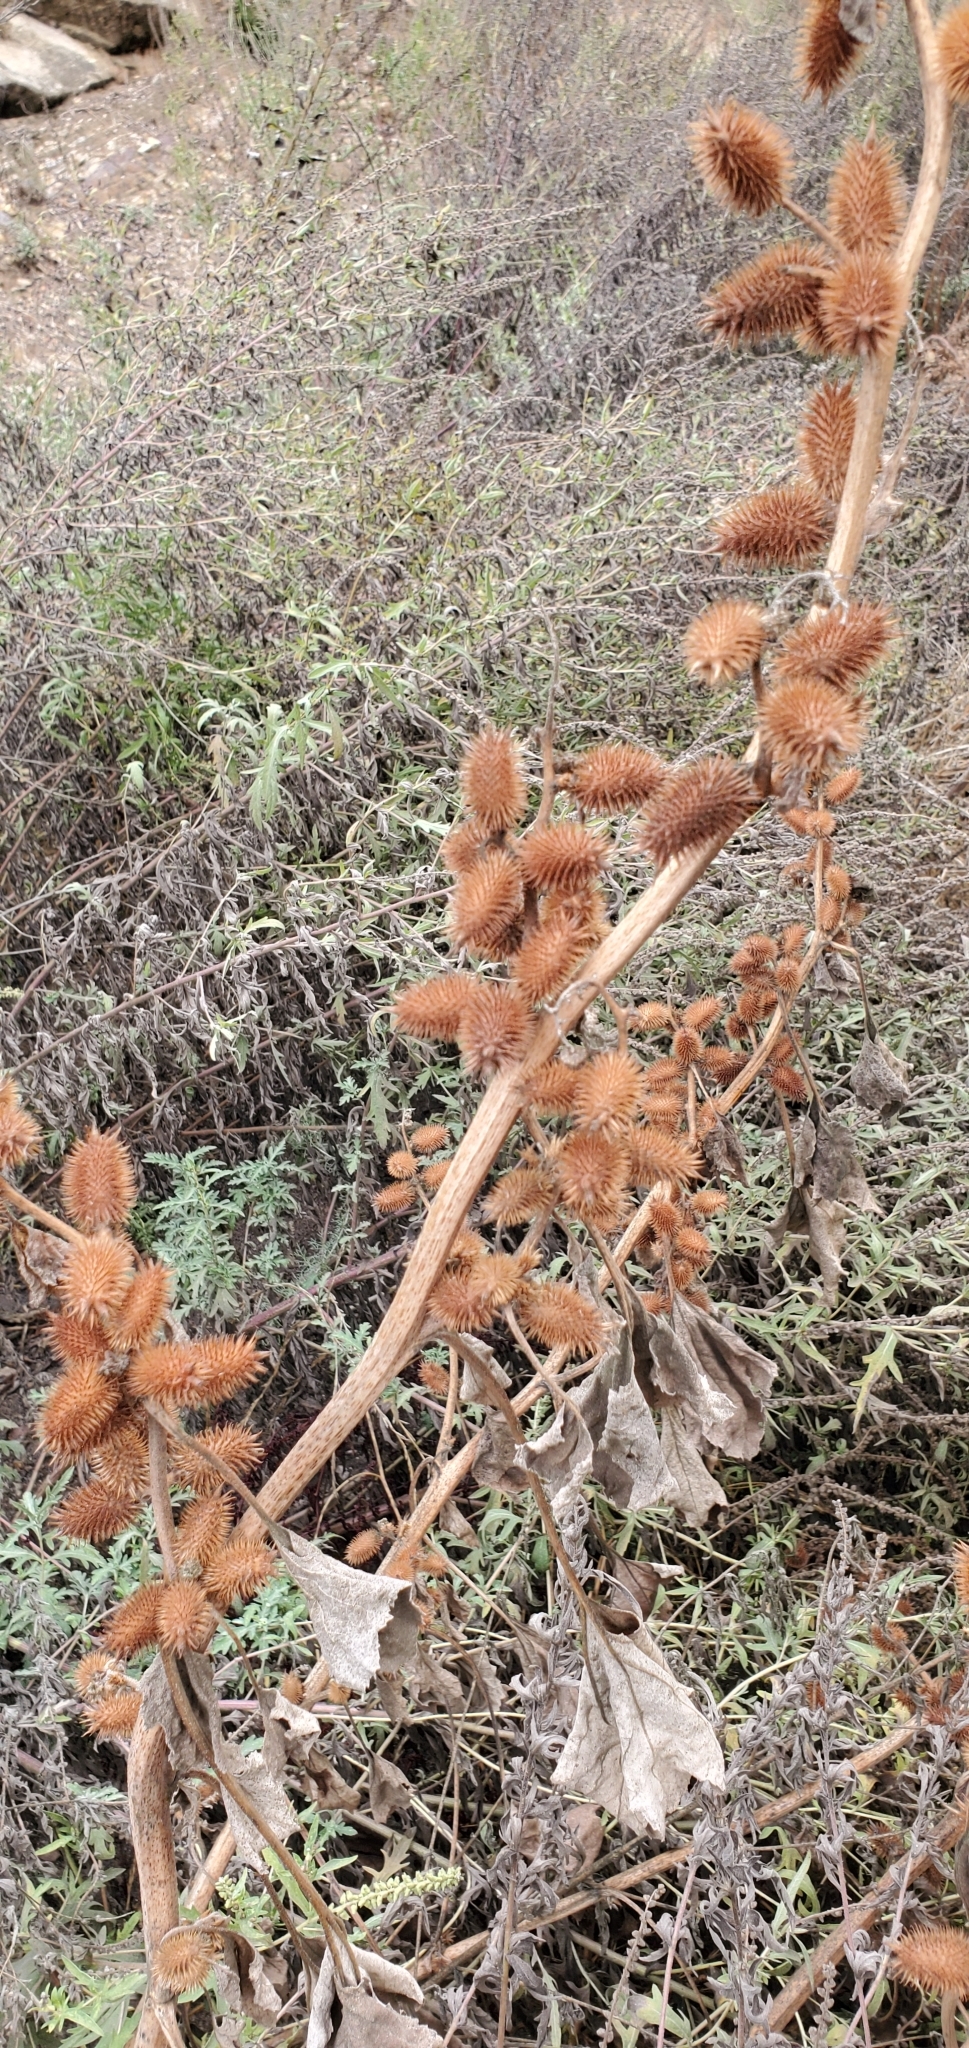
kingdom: Plantae
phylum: Tracheophyta
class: Magnoliopsida
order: Asterales
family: Asteraceae
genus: Xanthium
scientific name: Xanthium strumarium
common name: Rough cocklebur
